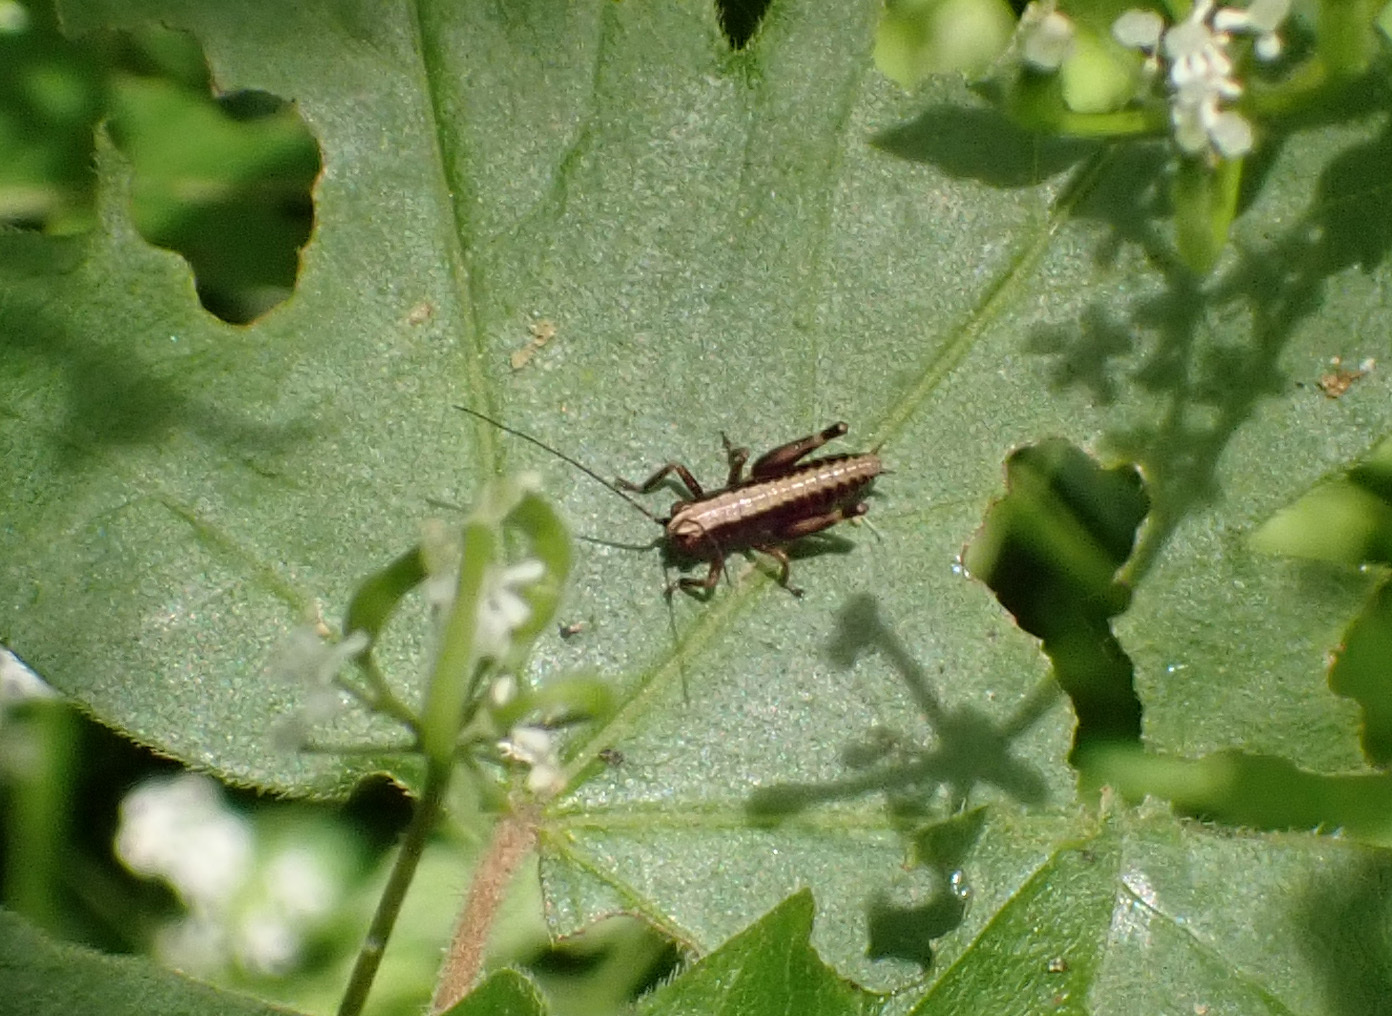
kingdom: Animalia
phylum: Arthropoda
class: Insecta
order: Orthoptera
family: Tettigoniidae
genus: Pholidoptera
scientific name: Pholidoptera griseoaptera
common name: Dark bush-cricket
